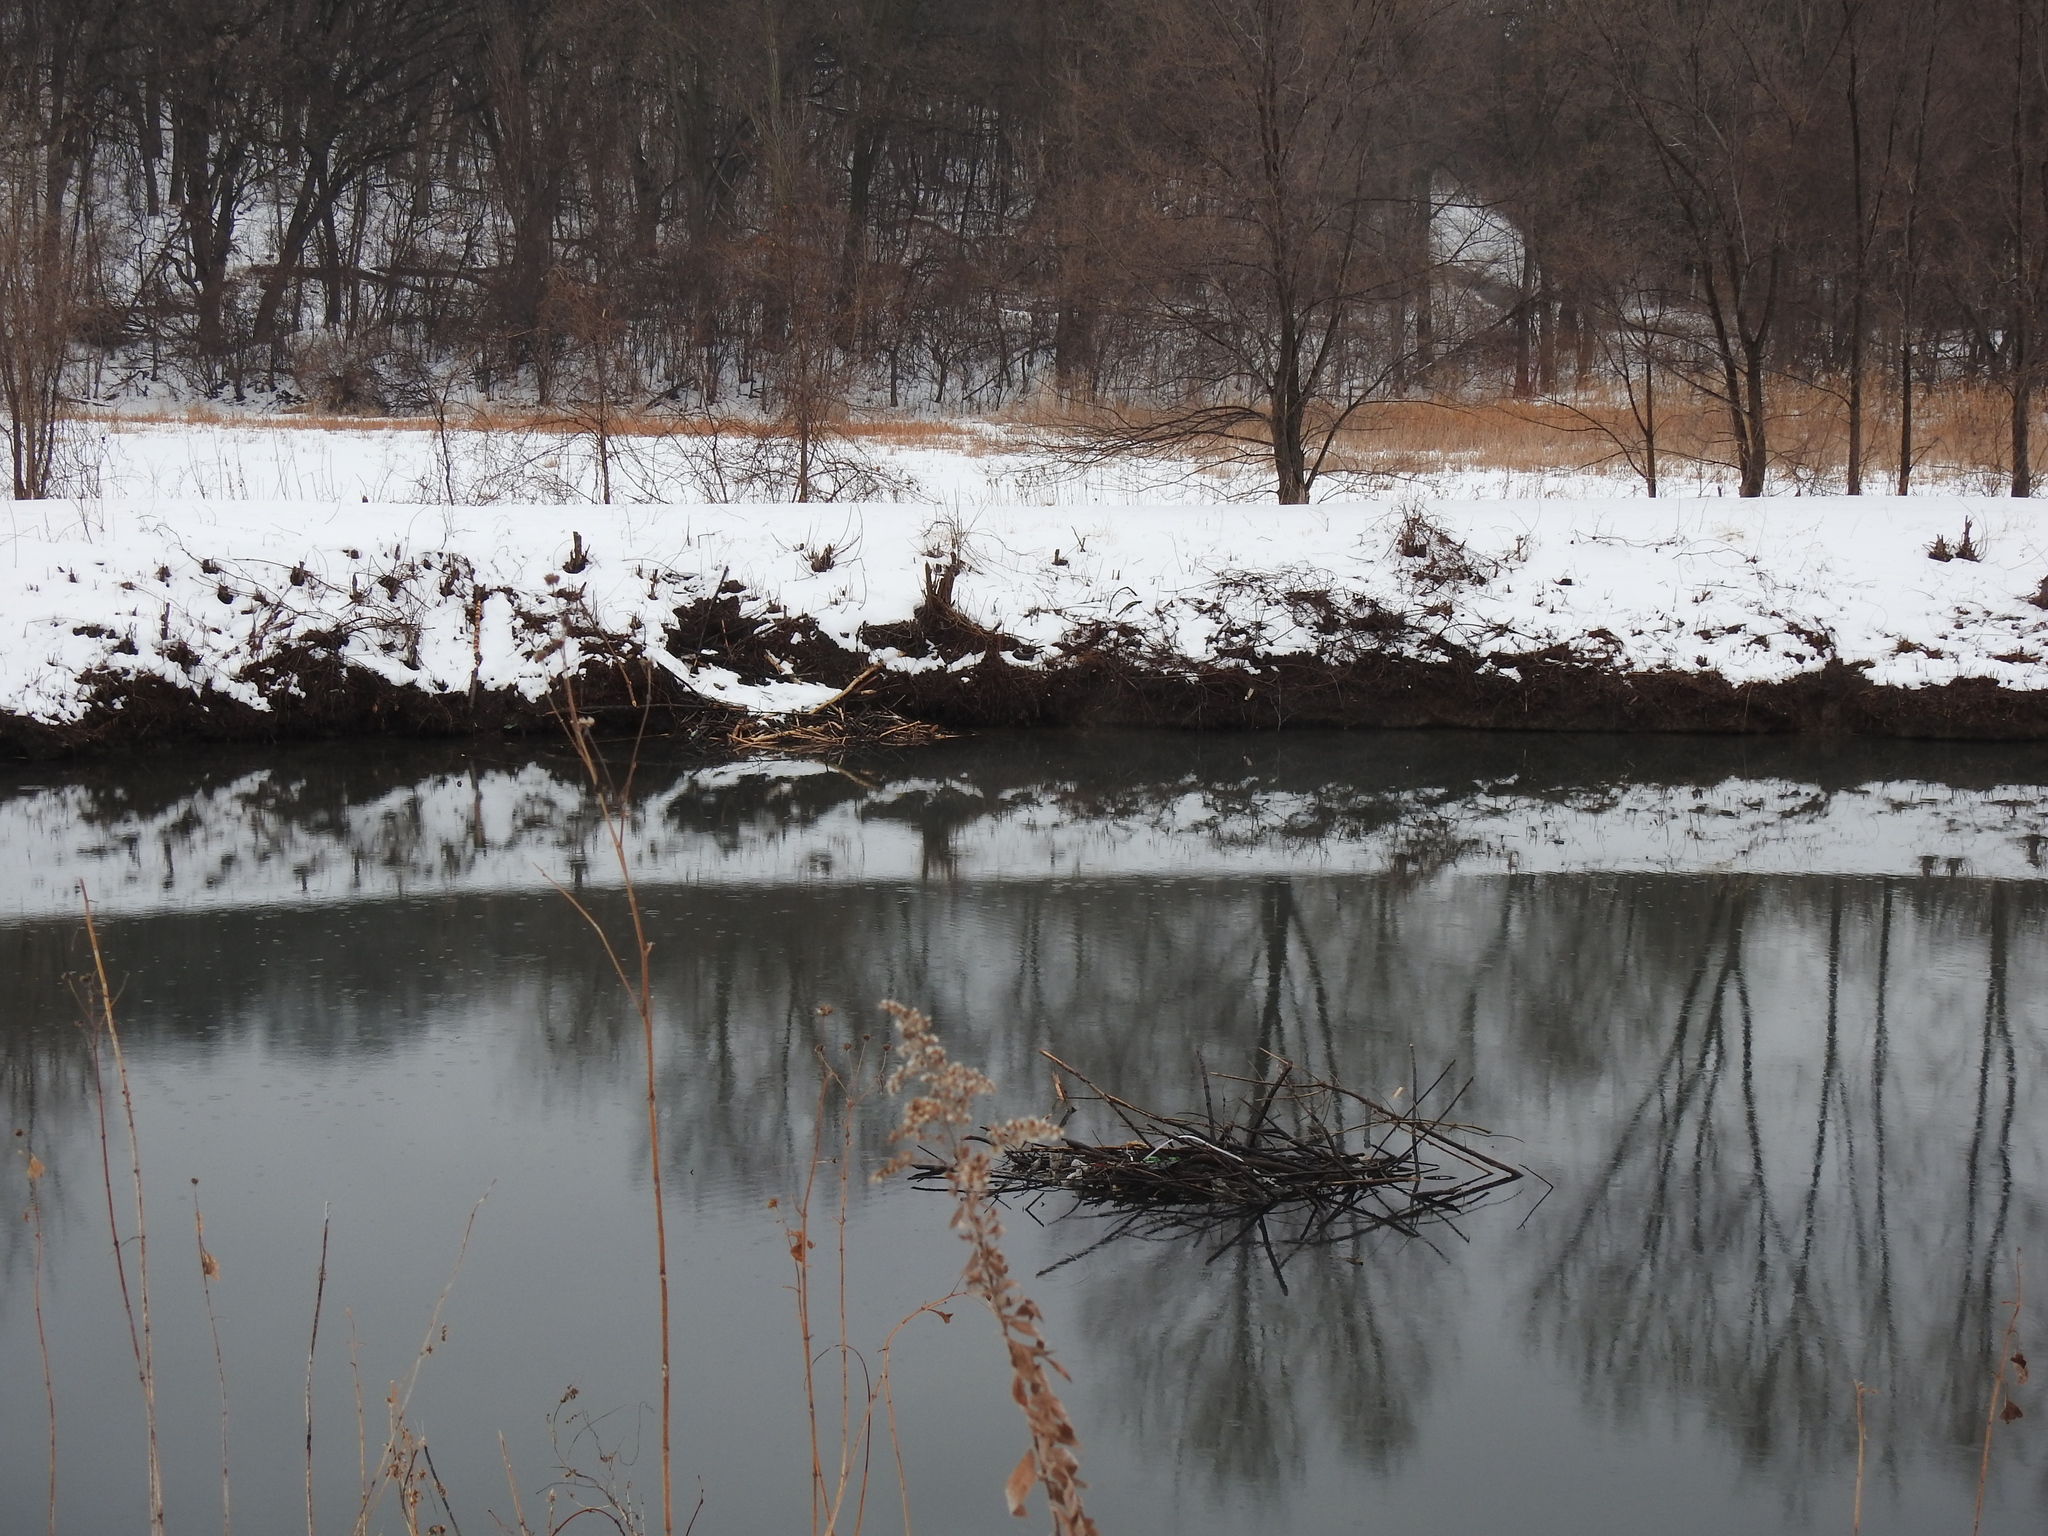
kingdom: Animalia
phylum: Chordata
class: Mammalia
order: Rodentia
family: Castoridae
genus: Castor
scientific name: Castor canadensis
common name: American beaver
